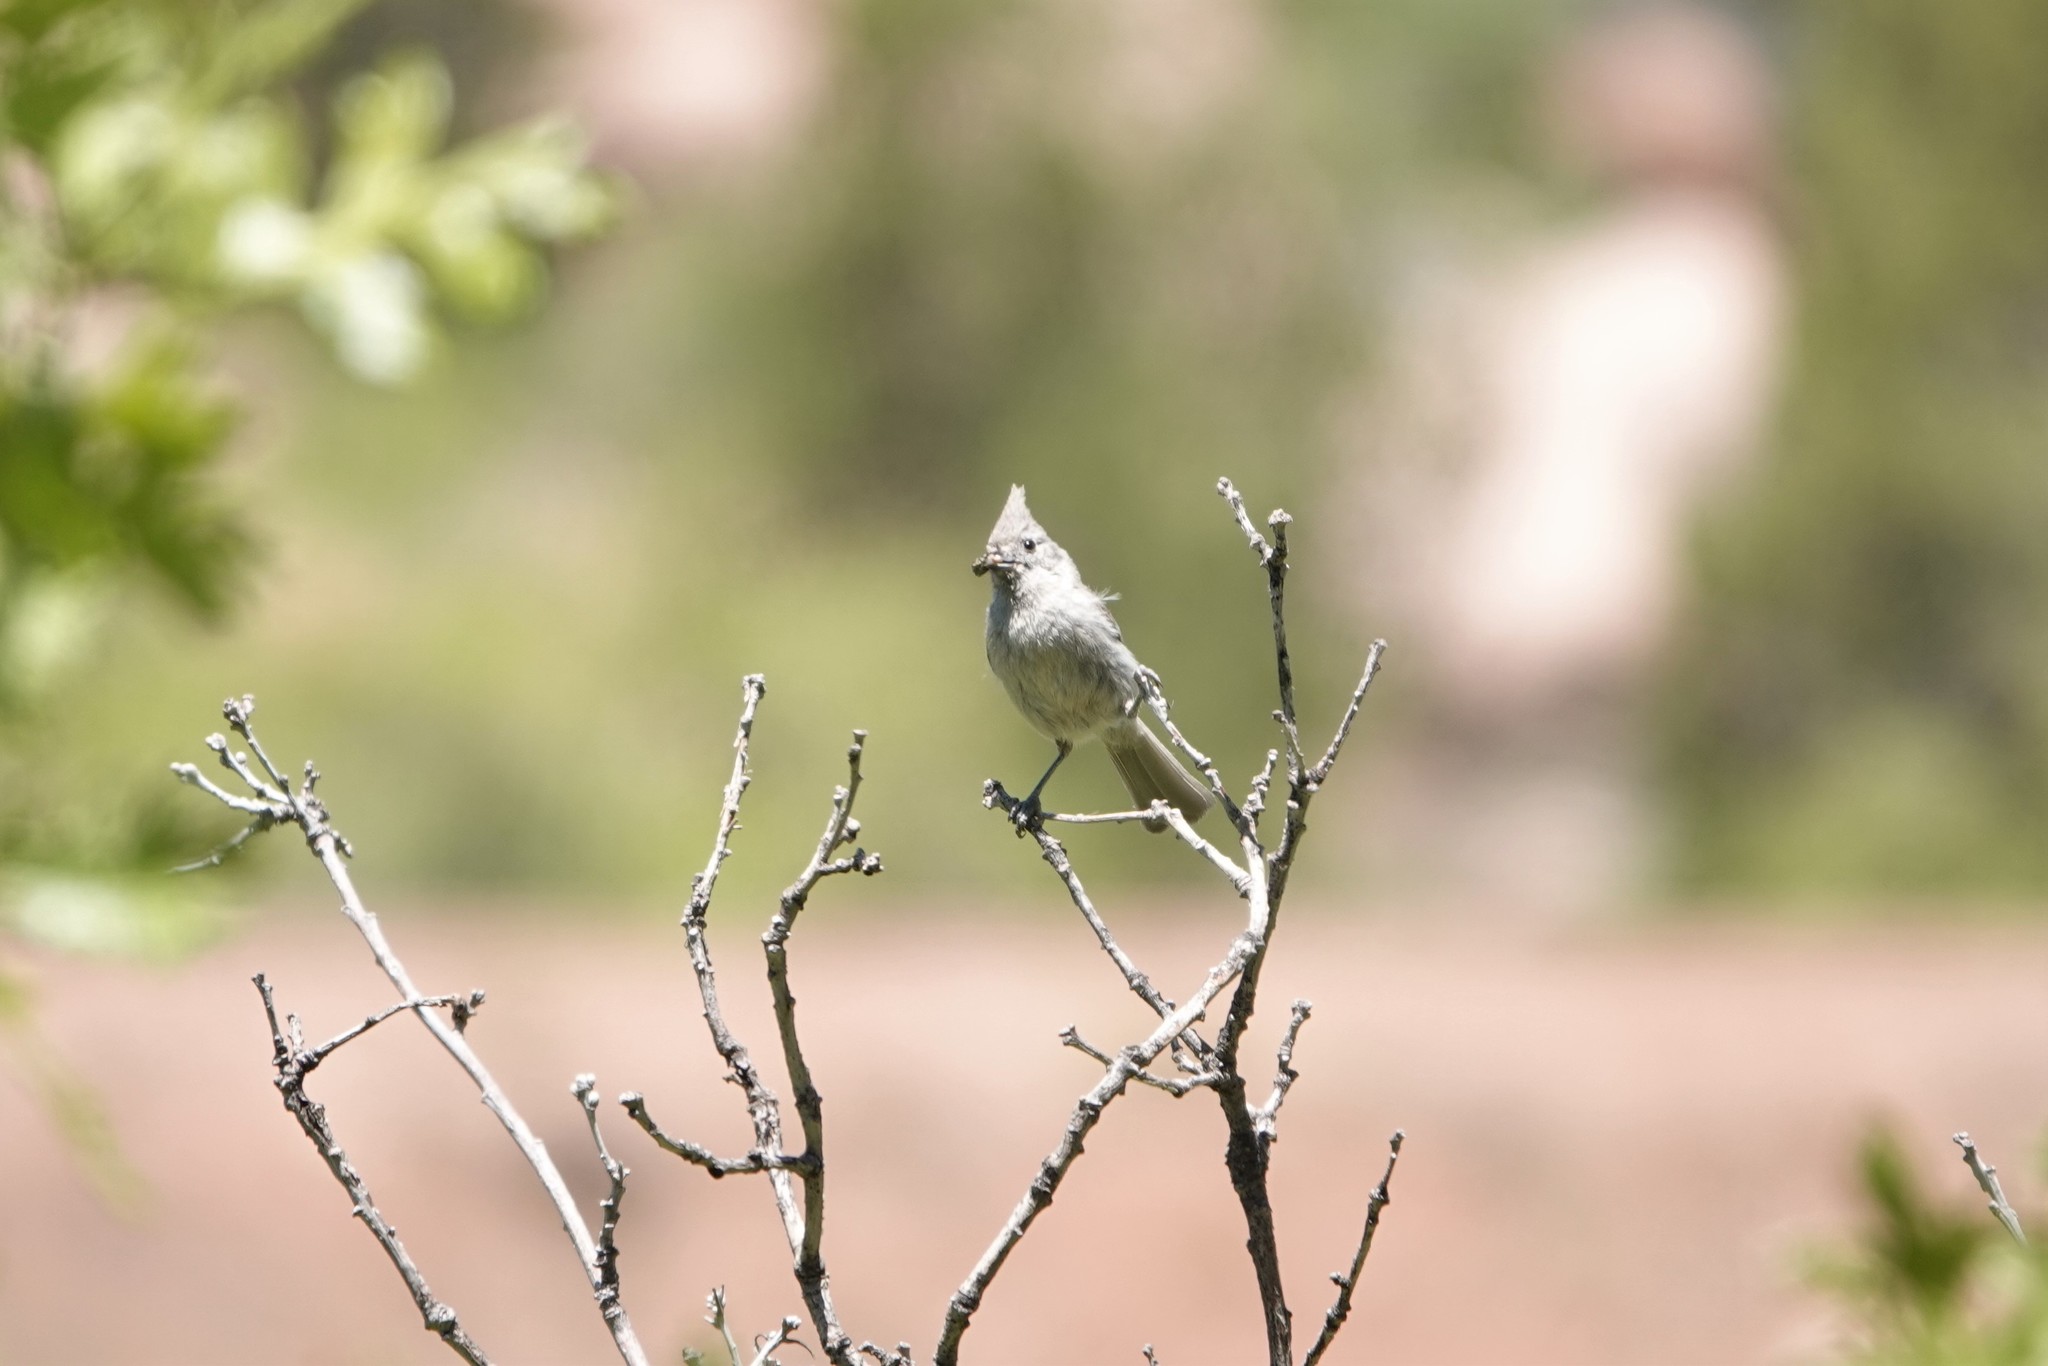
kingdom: Animalia
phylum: Chordata
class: Aves
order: Passeriformes
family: Paridae
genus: Baeolophus
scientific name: Baeolophus ridgwayi
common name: Juniper titmouse
